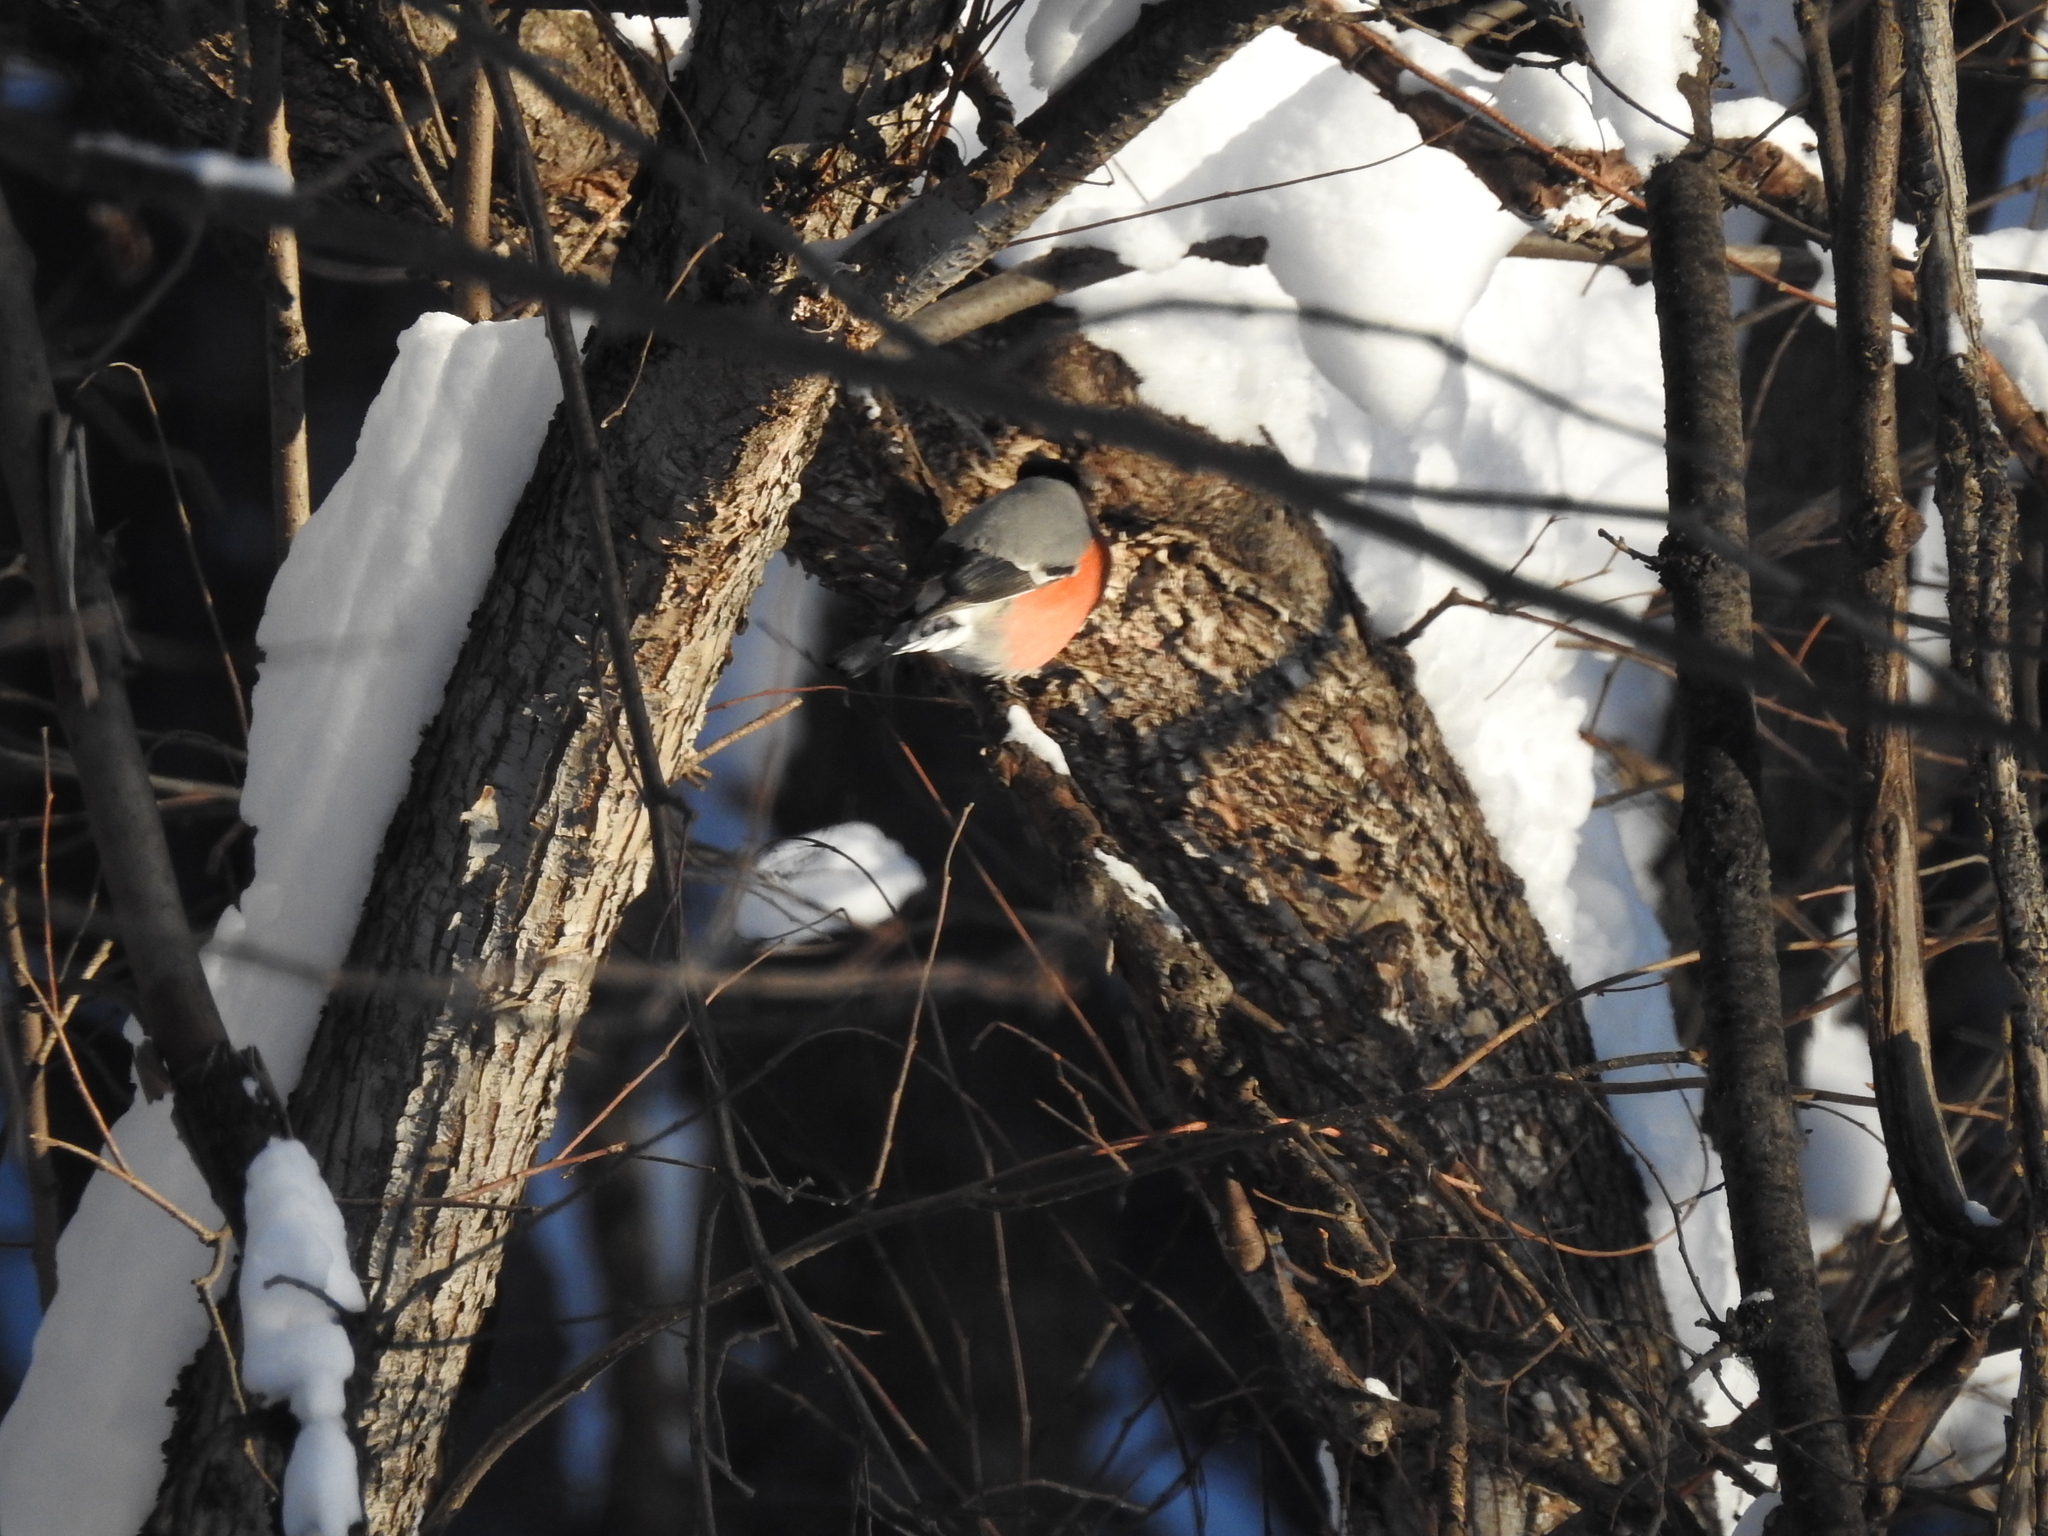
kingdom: Animalia
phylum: Chordata
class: Aves
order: Passeriformes
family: Fringillidae
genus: Pyrrhula
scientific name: Pyrrhula pyrrhula
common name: Eurasian bullfinch
